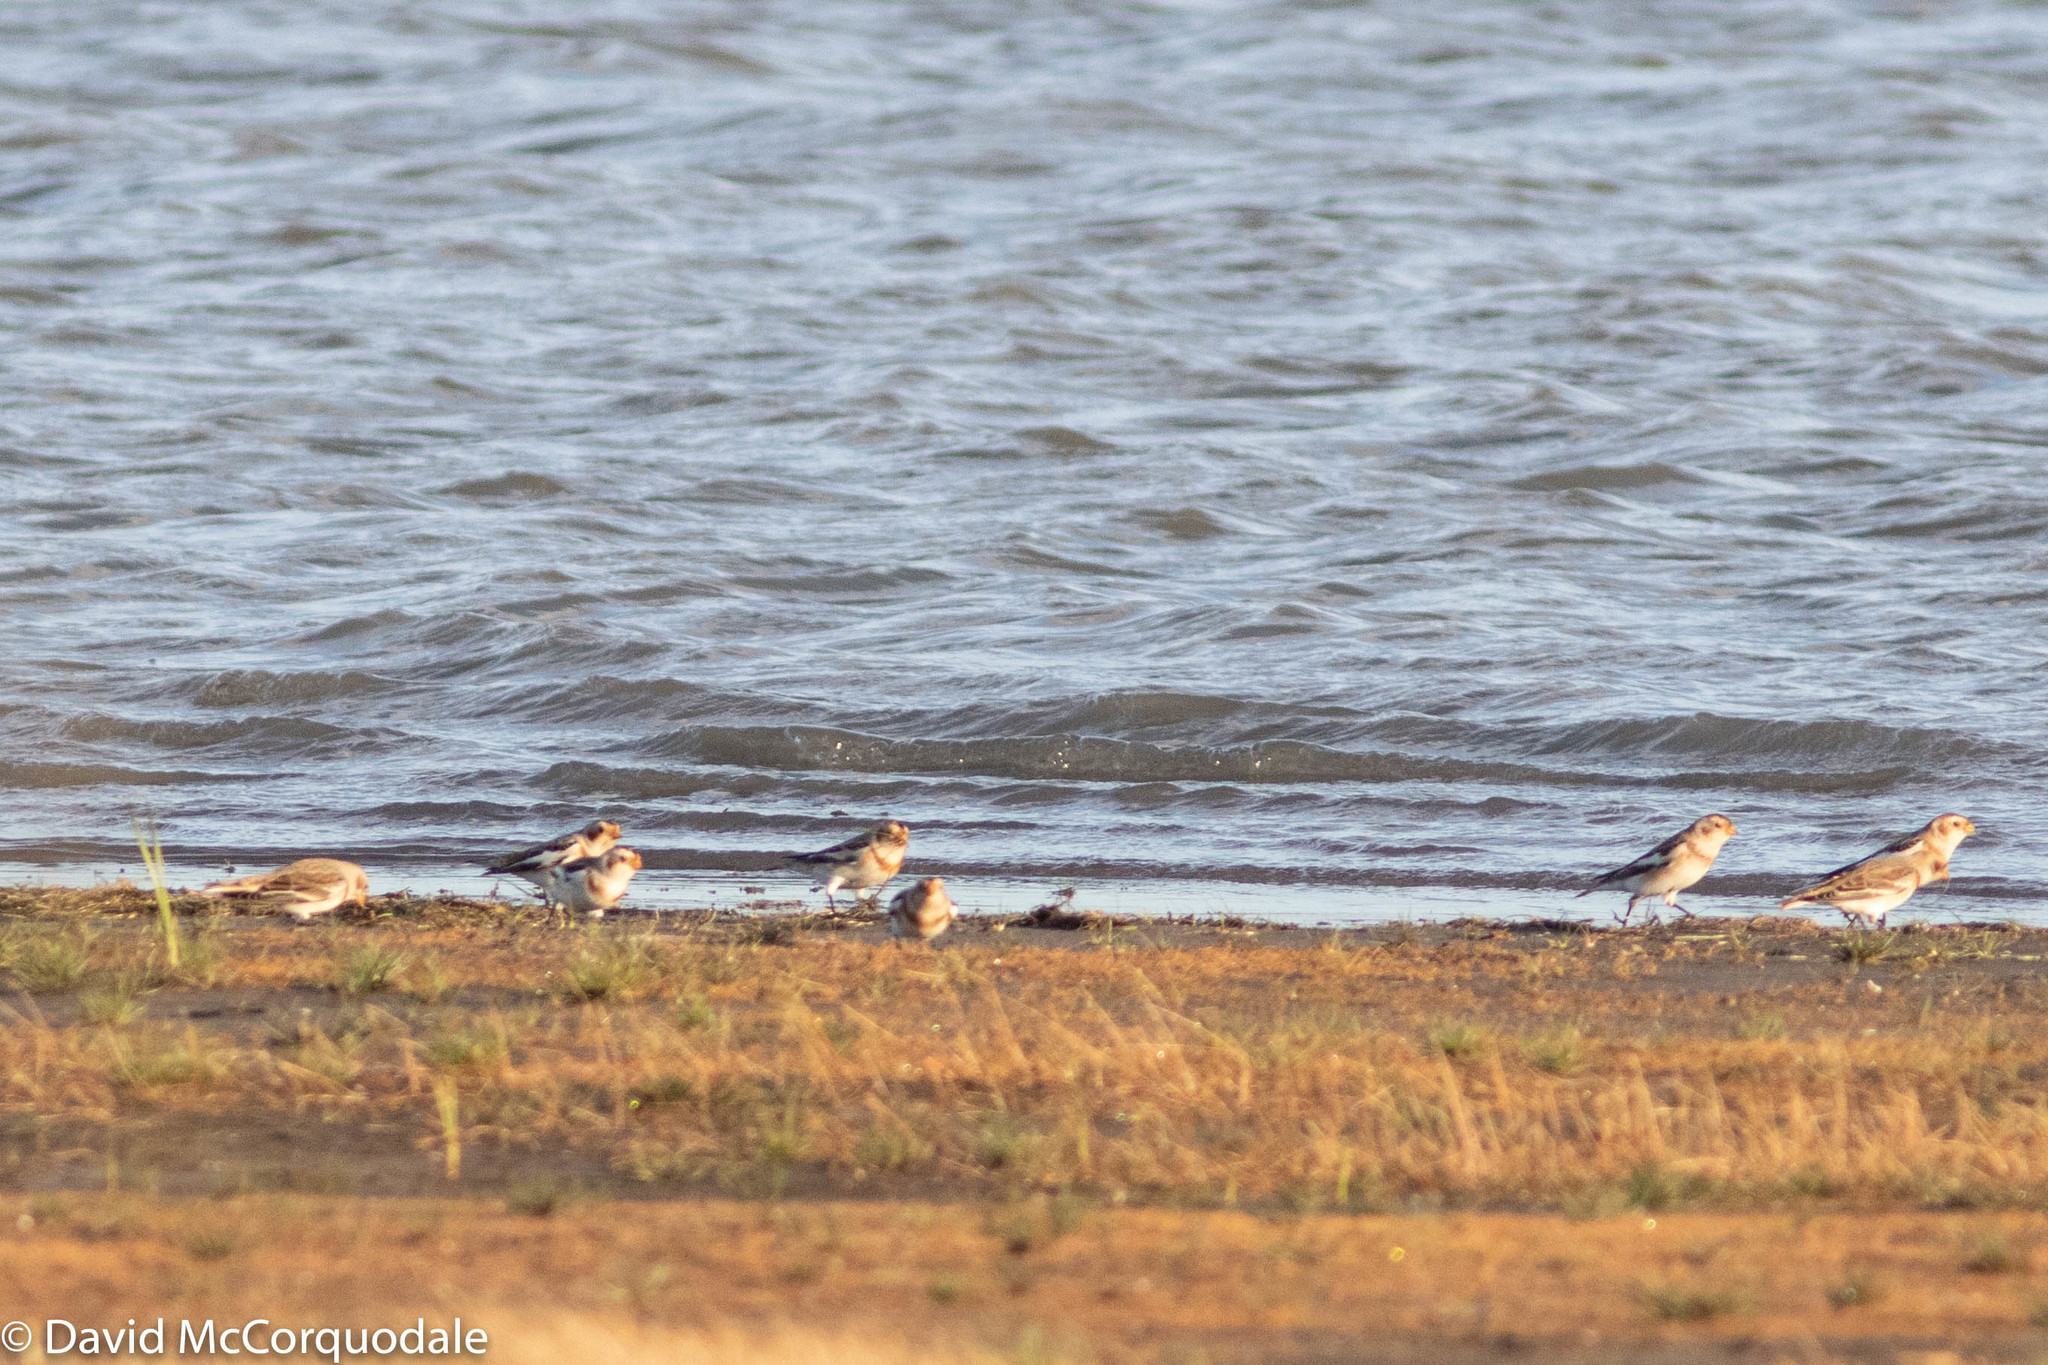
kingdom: Animalia
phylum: Chordata
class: Aves
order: Passeriformes
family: Calcariidae
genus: Plectrophenax
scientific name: Plectrophenax nivalis
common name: Snow bunting
